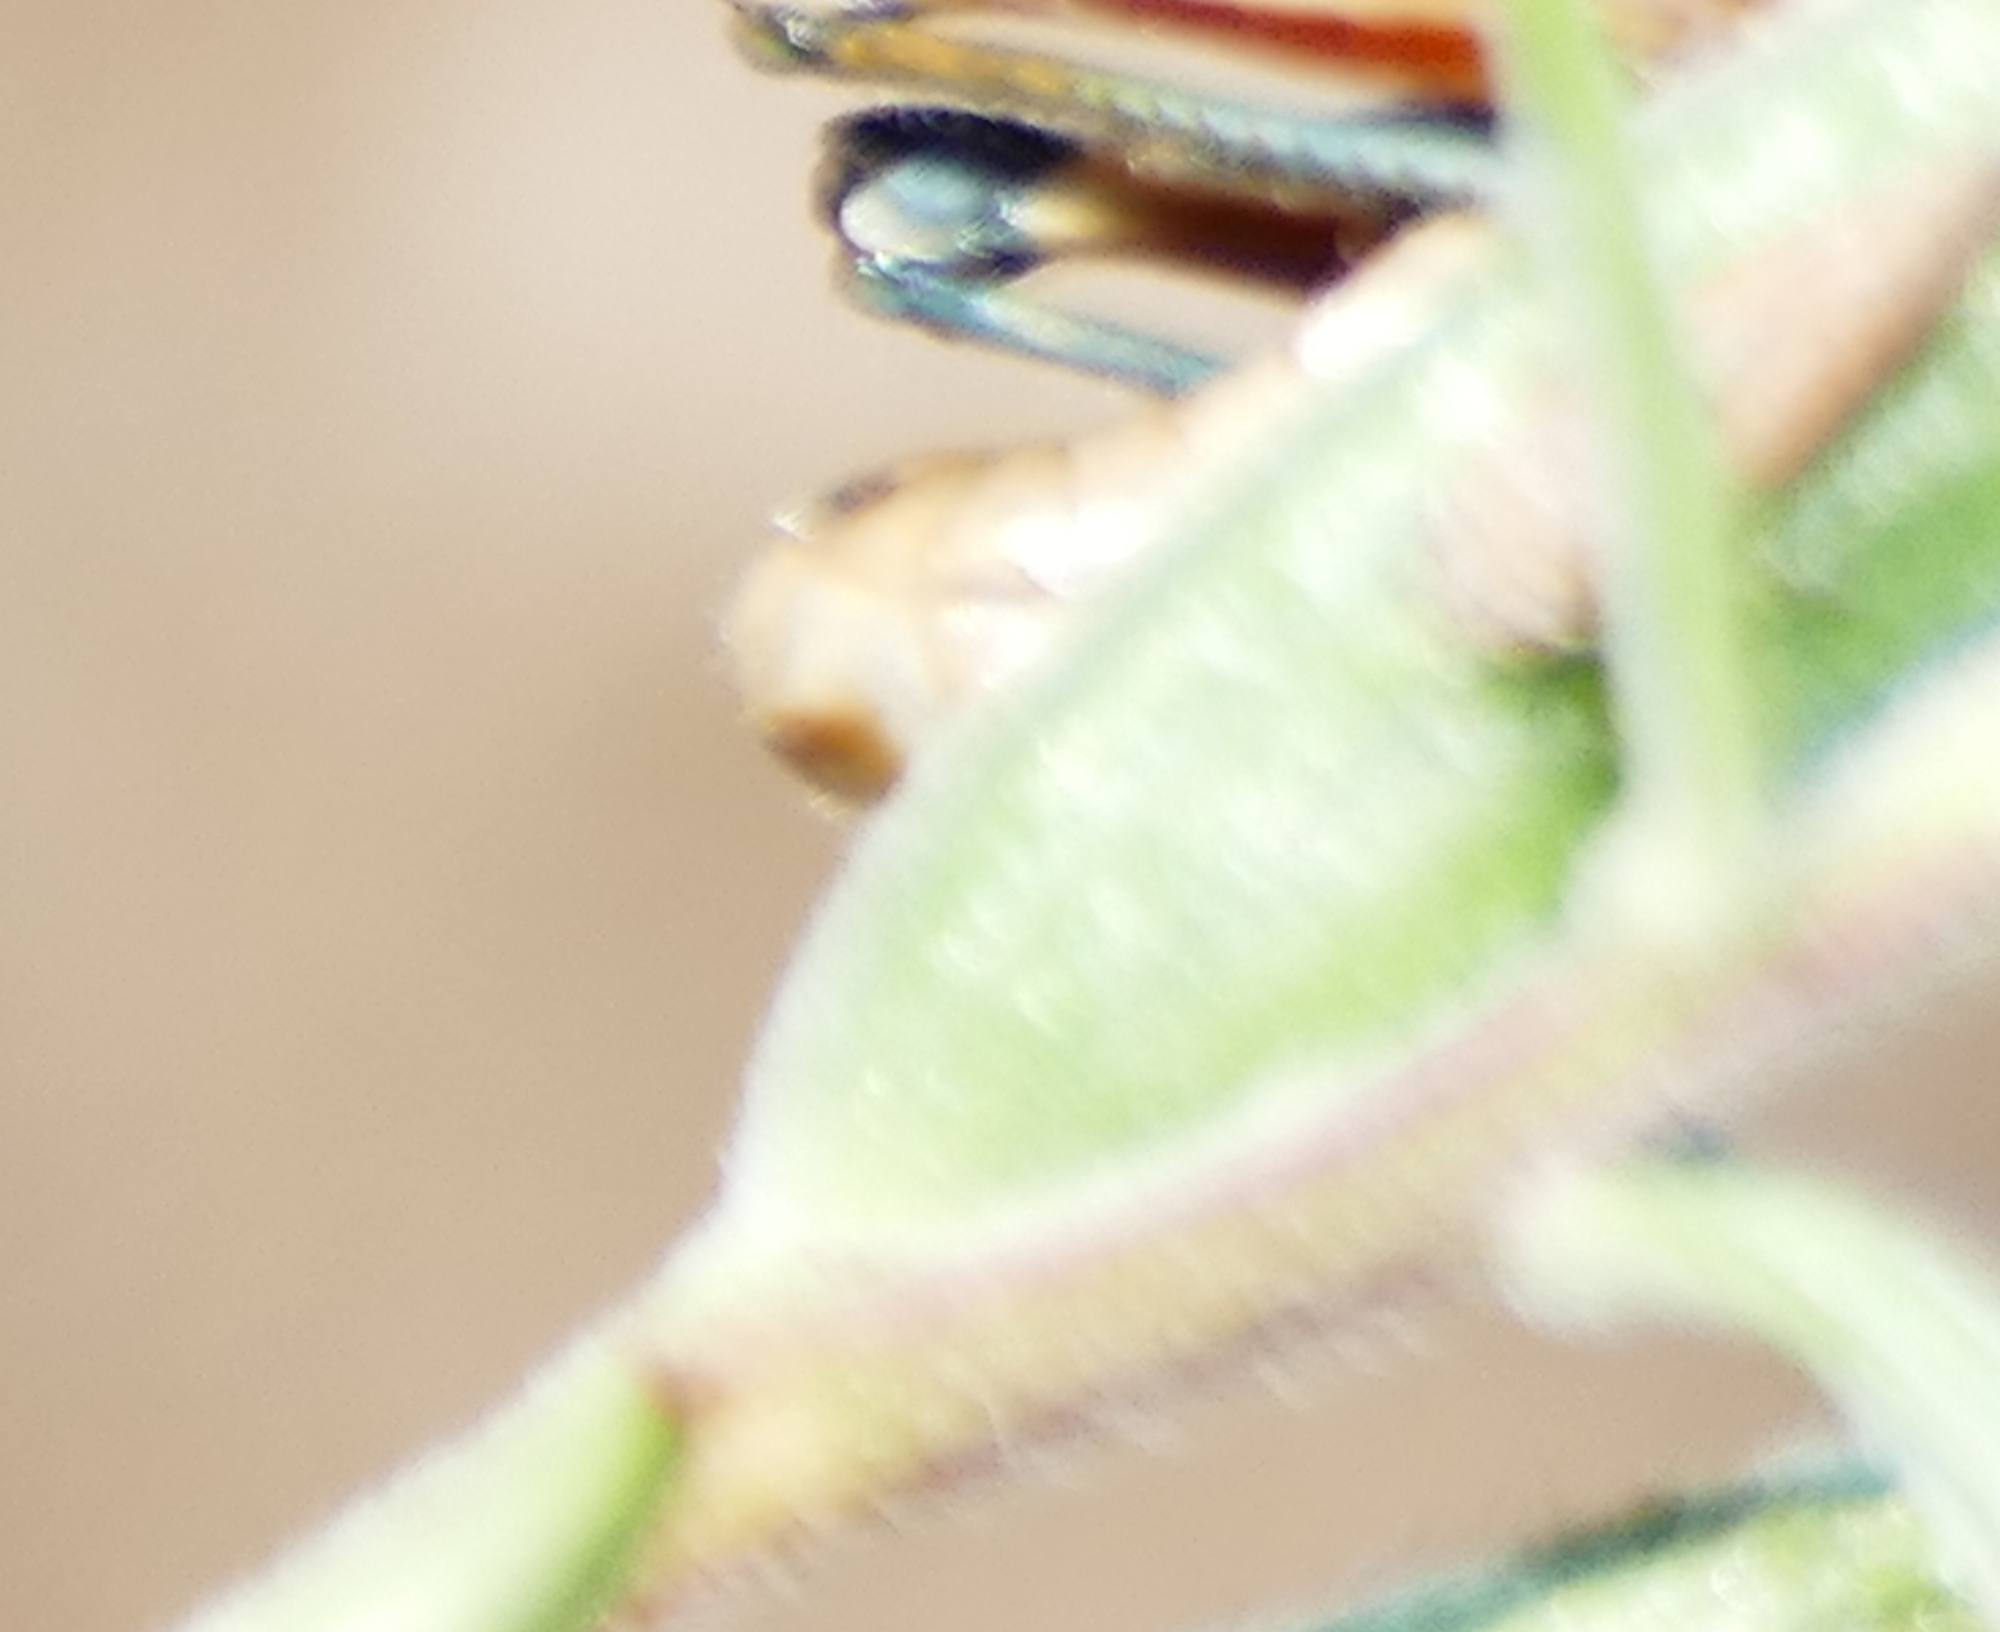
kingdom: Animalia
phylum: Arthropoda
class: Insecta
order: Orthoptera
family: Acrididae
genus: Melanoplus
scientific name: Melanoplus lakinus
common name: Lakin grasshopper
